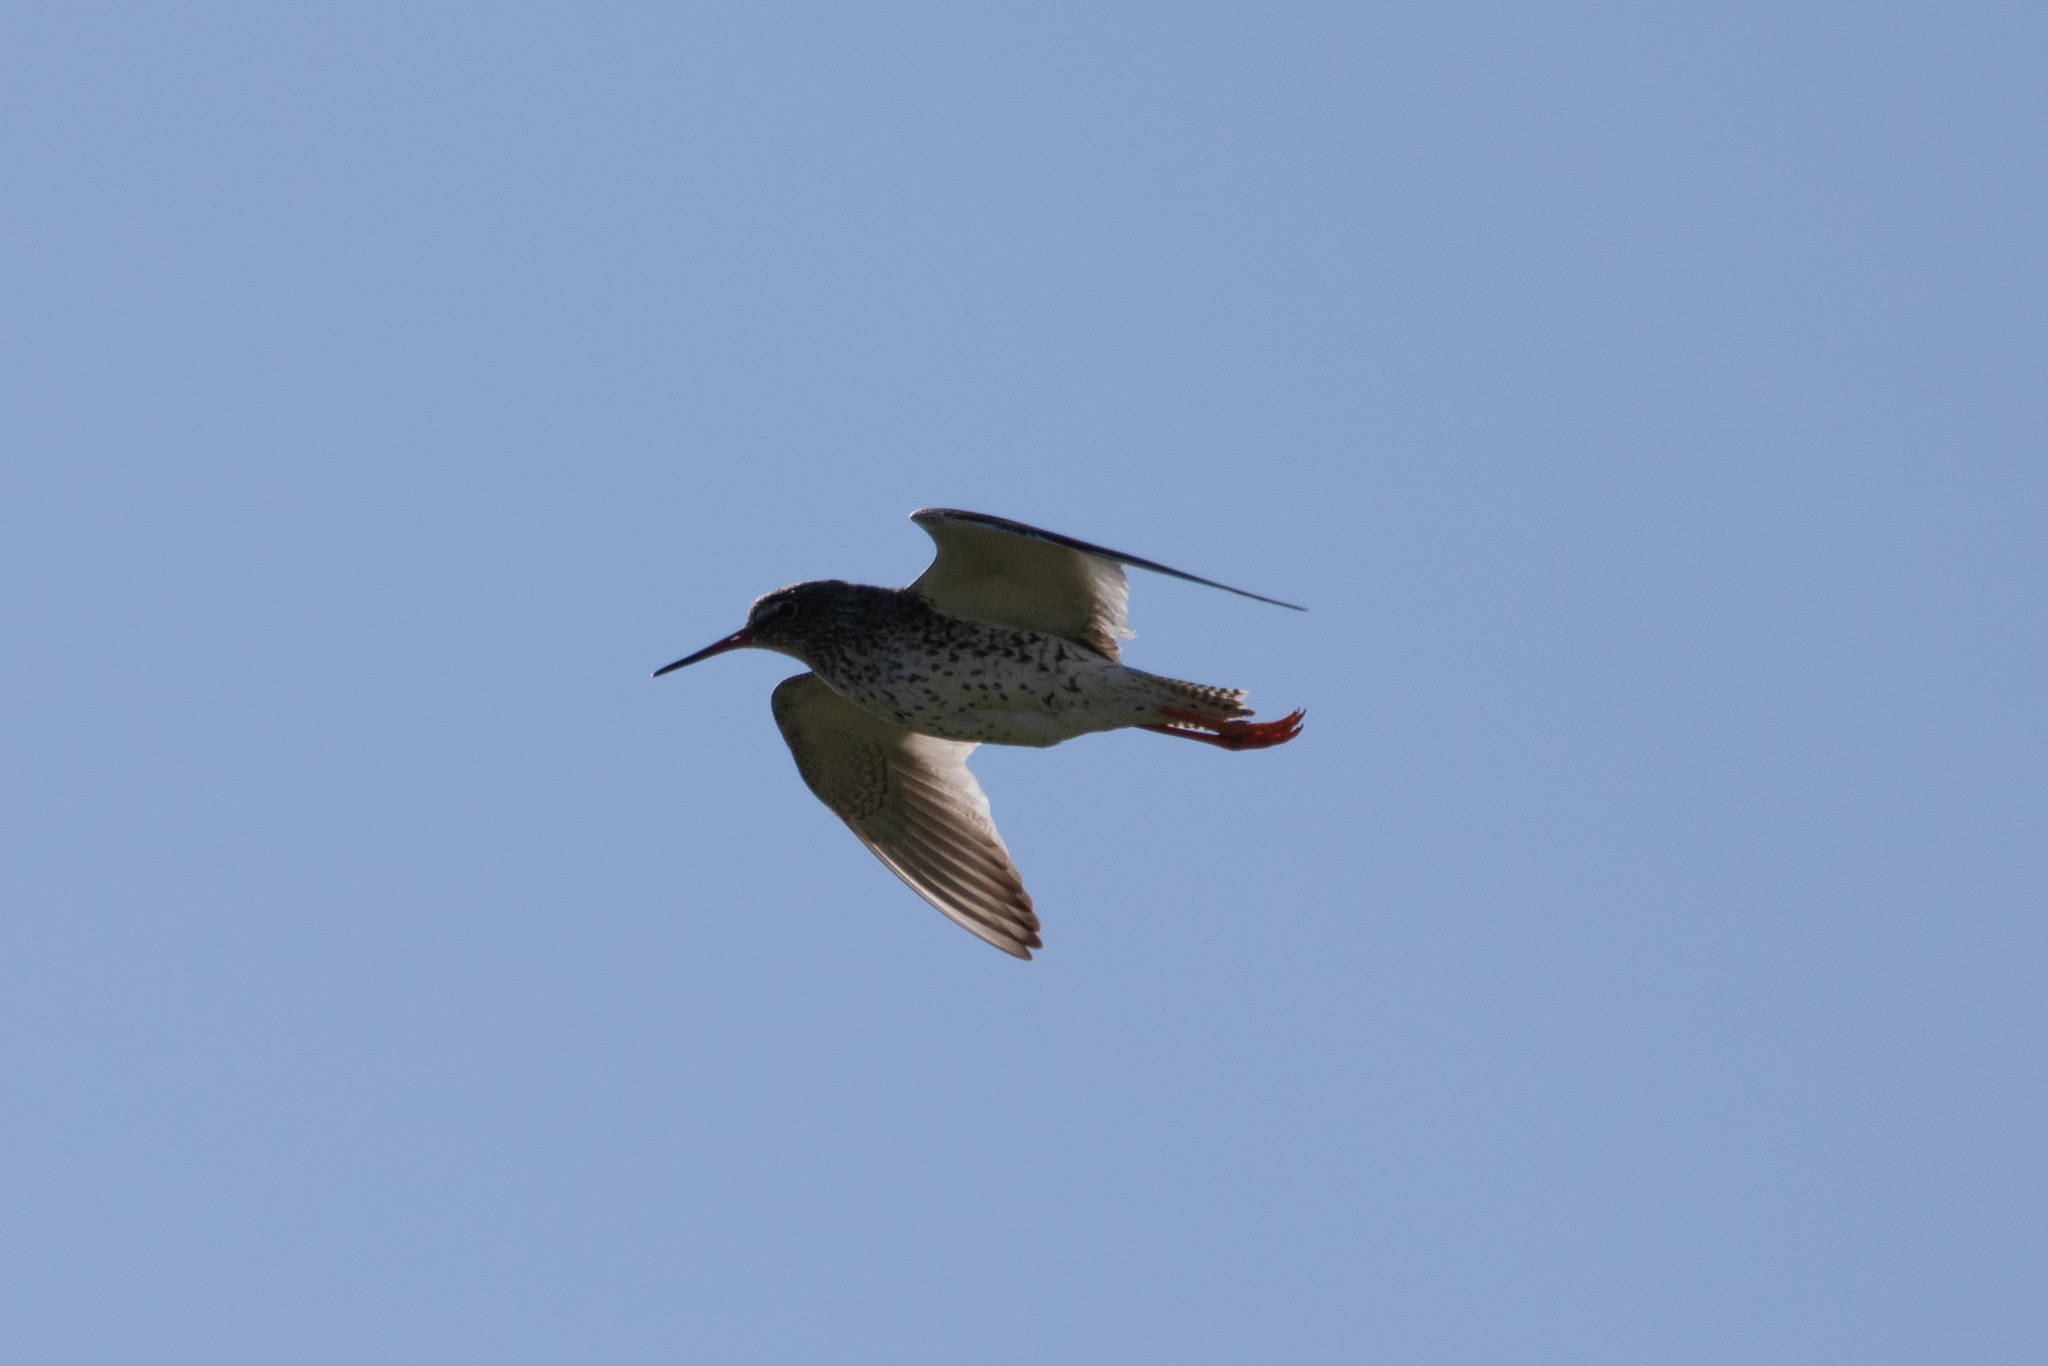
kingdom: Animalia
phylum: Chordata
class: Aves
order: Charadriiformes
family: Scolopacidae
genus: Tringa
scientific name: Tringa totanus
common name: Common redshank
